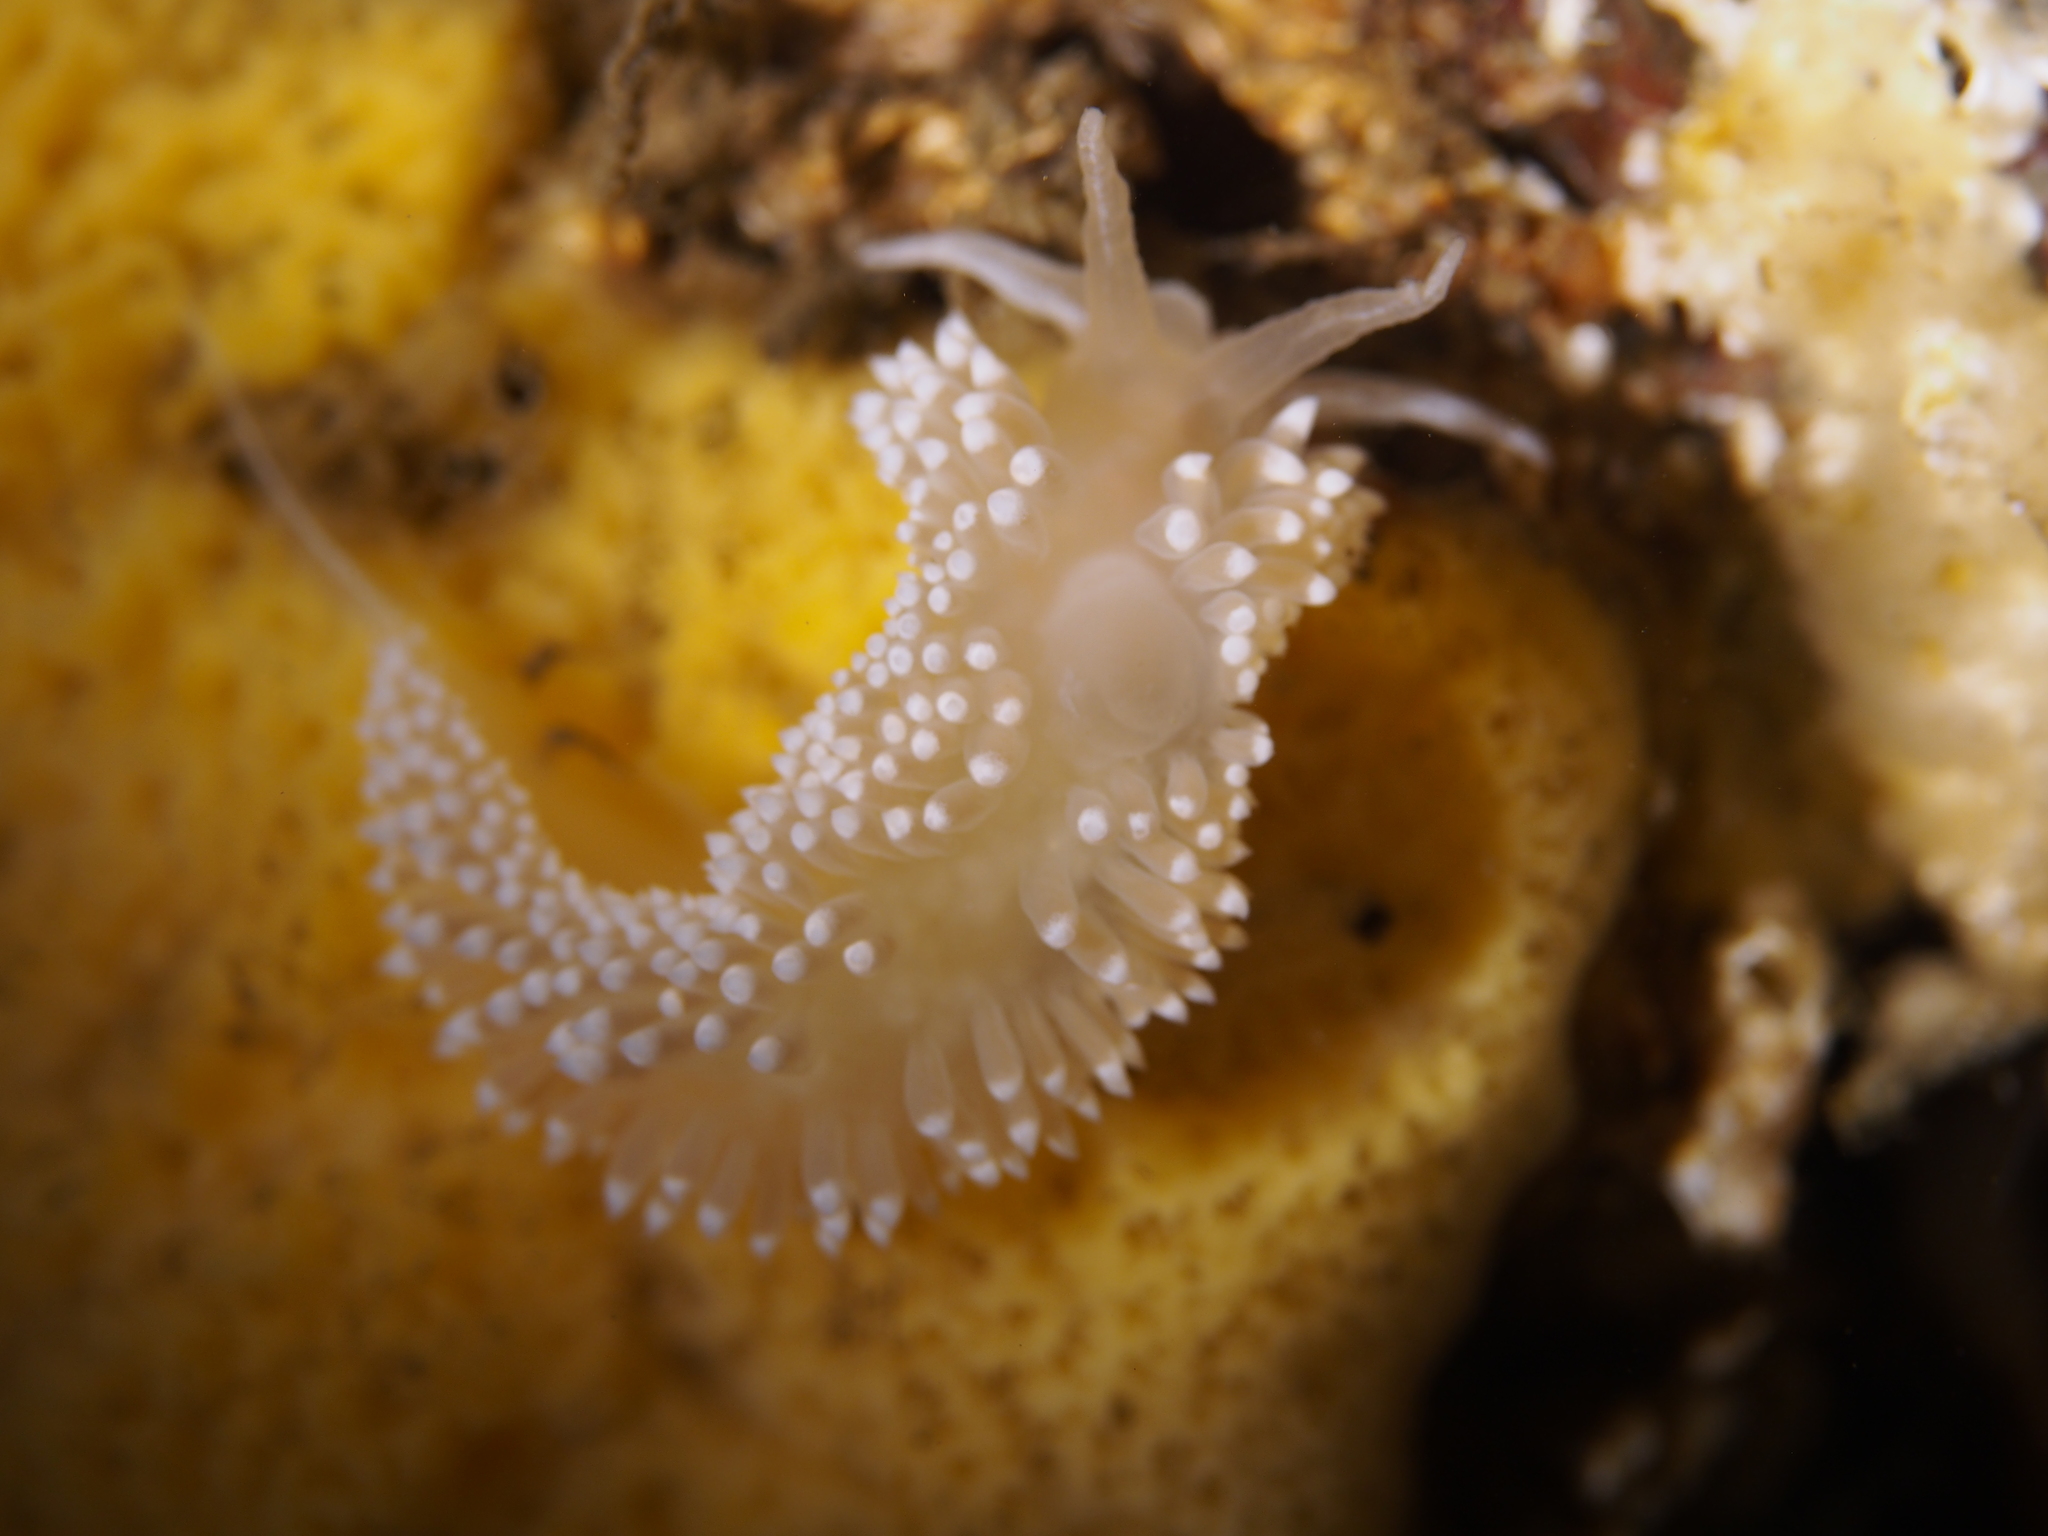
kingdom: Animalia
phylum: Mollusca
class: Gastropoda
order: Nudibranchia
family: Coryphellidae
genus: Coryphella
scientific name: Coryphella verrucosa
